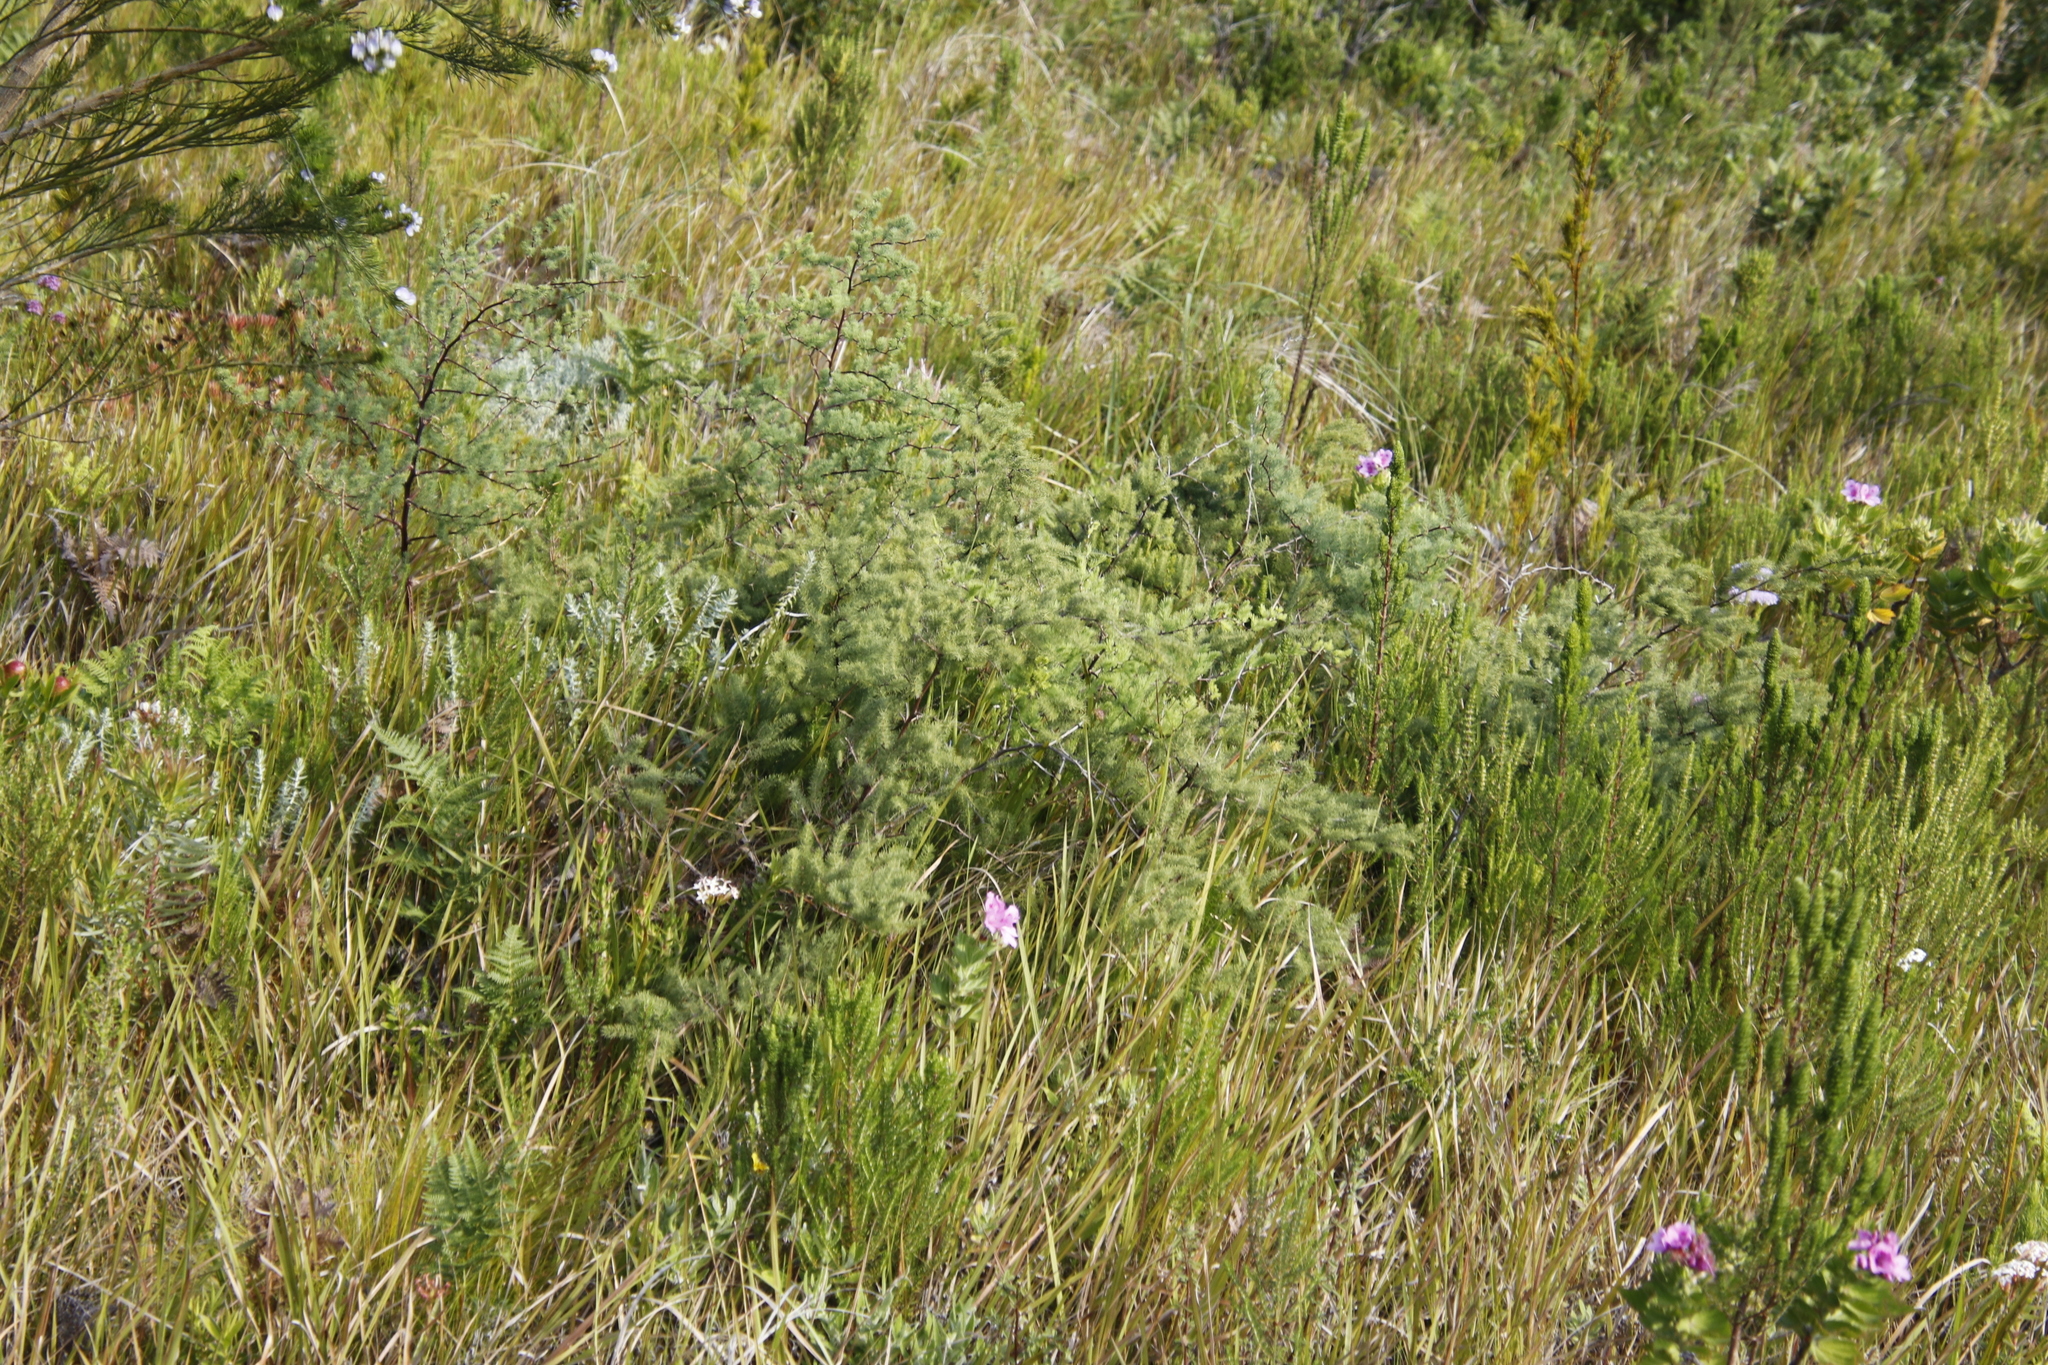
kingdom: Plantae
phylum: Tracheophyta
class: Liliopsida
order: Asparagales
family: Asparagaceae
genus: Asparagus
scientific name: Asparagus rubicundus
